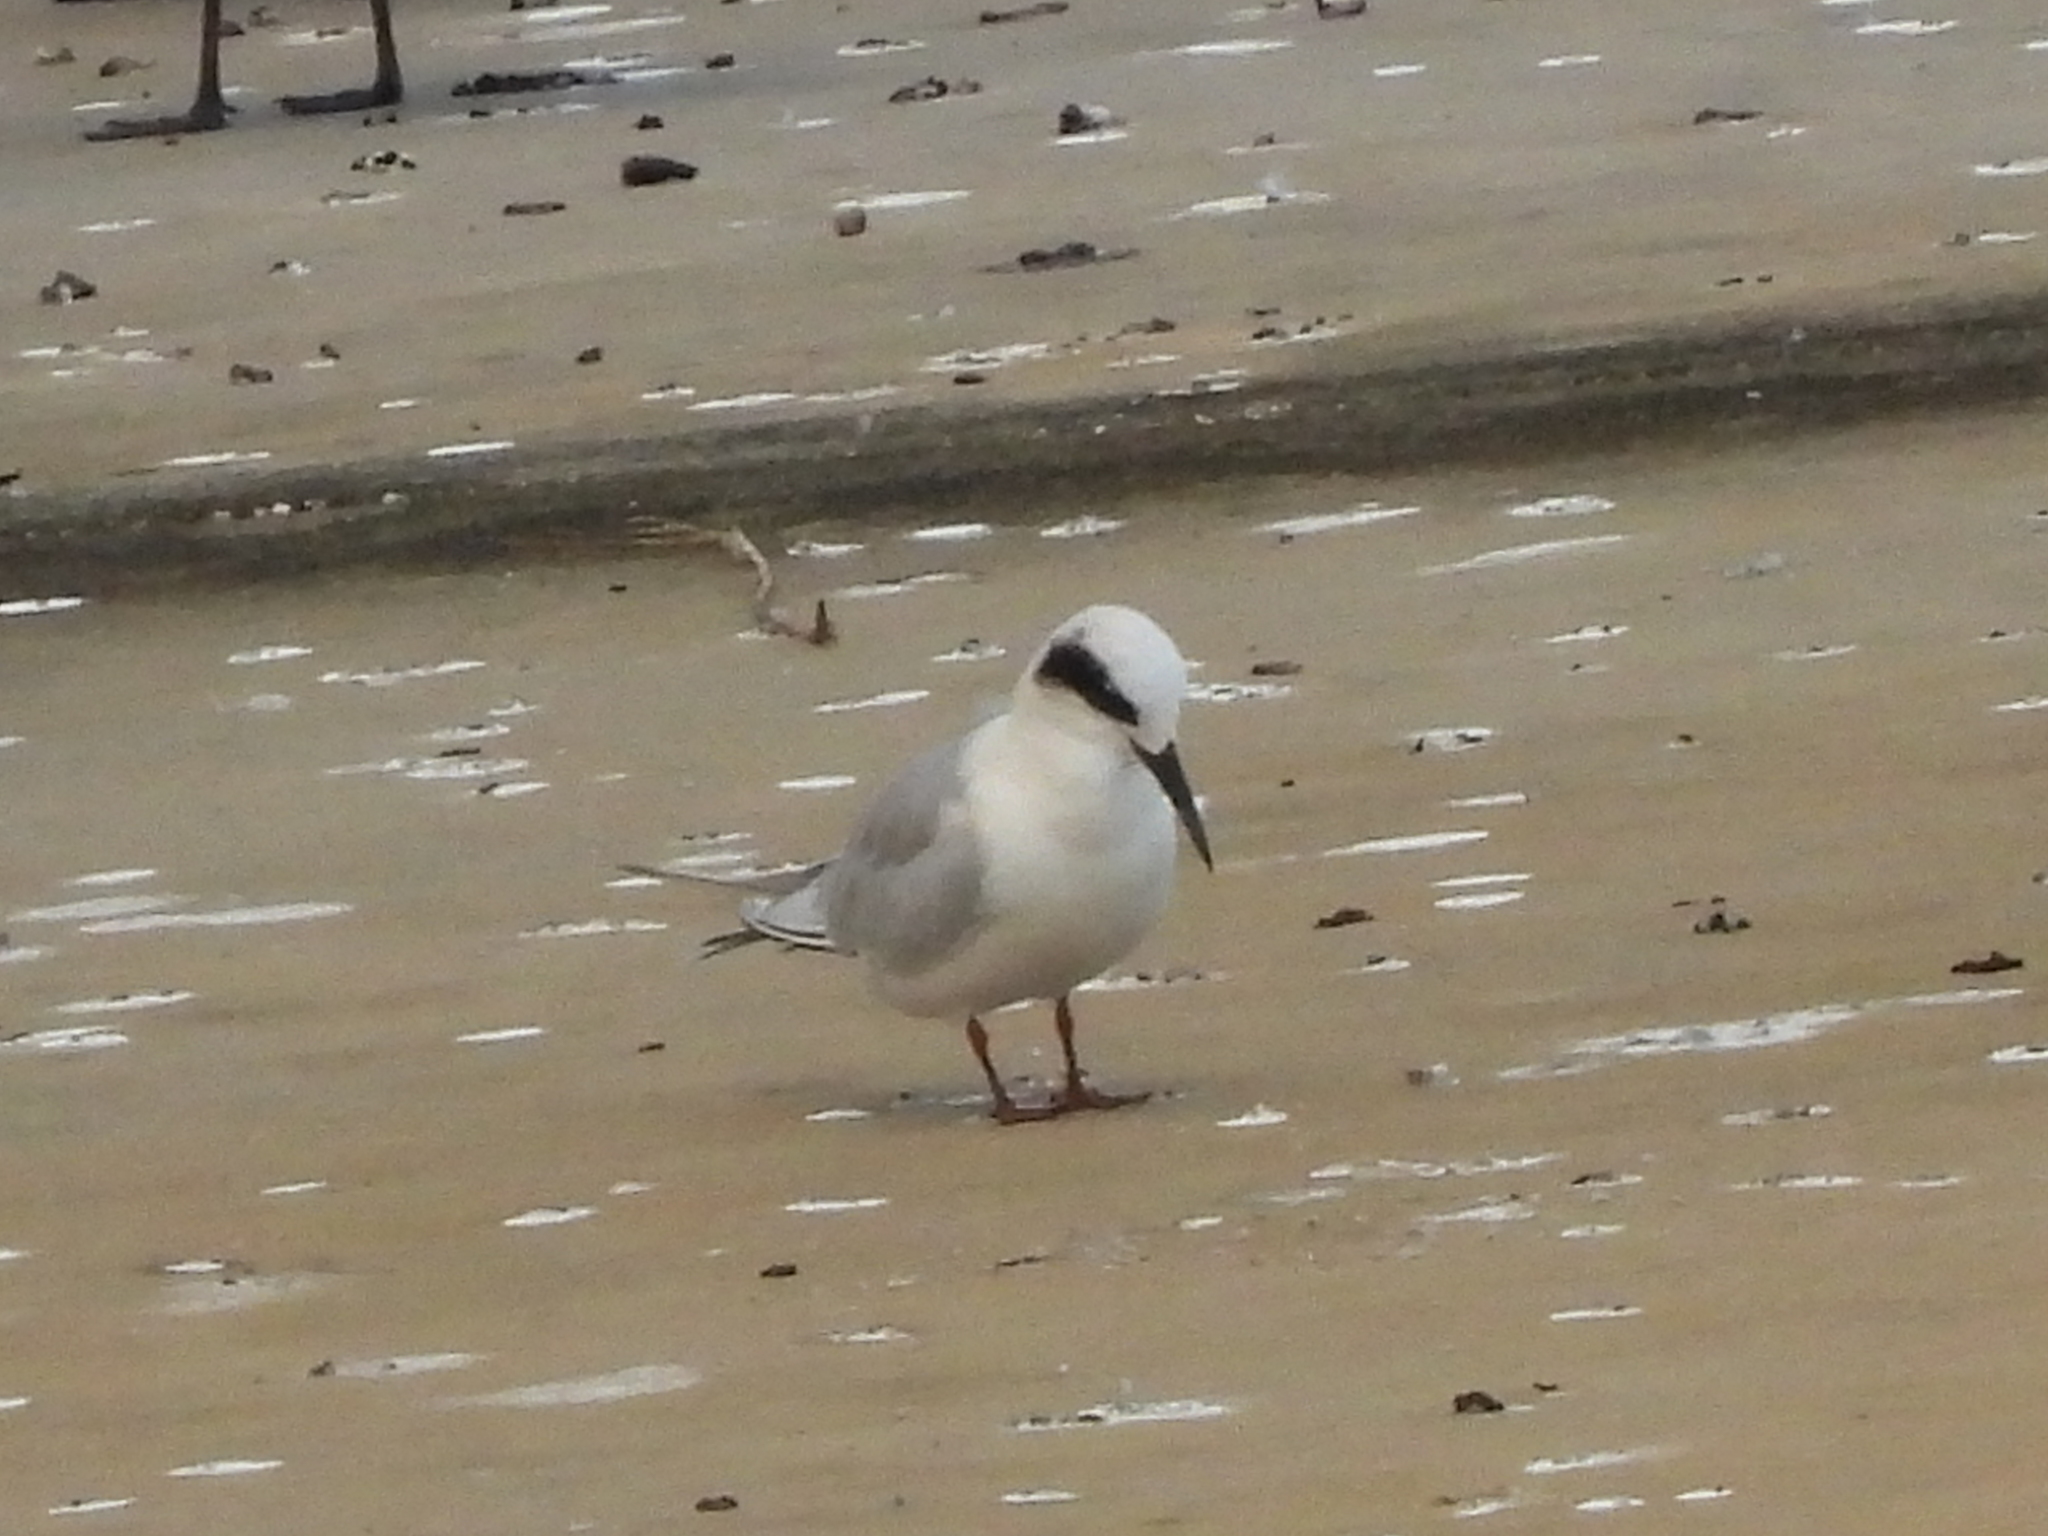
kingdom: Animalia
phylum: Chordata
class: Aves
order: Charadriiformes
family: Laridae
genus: Sterna
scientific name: Sterna forsteri
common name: Forster's tern
